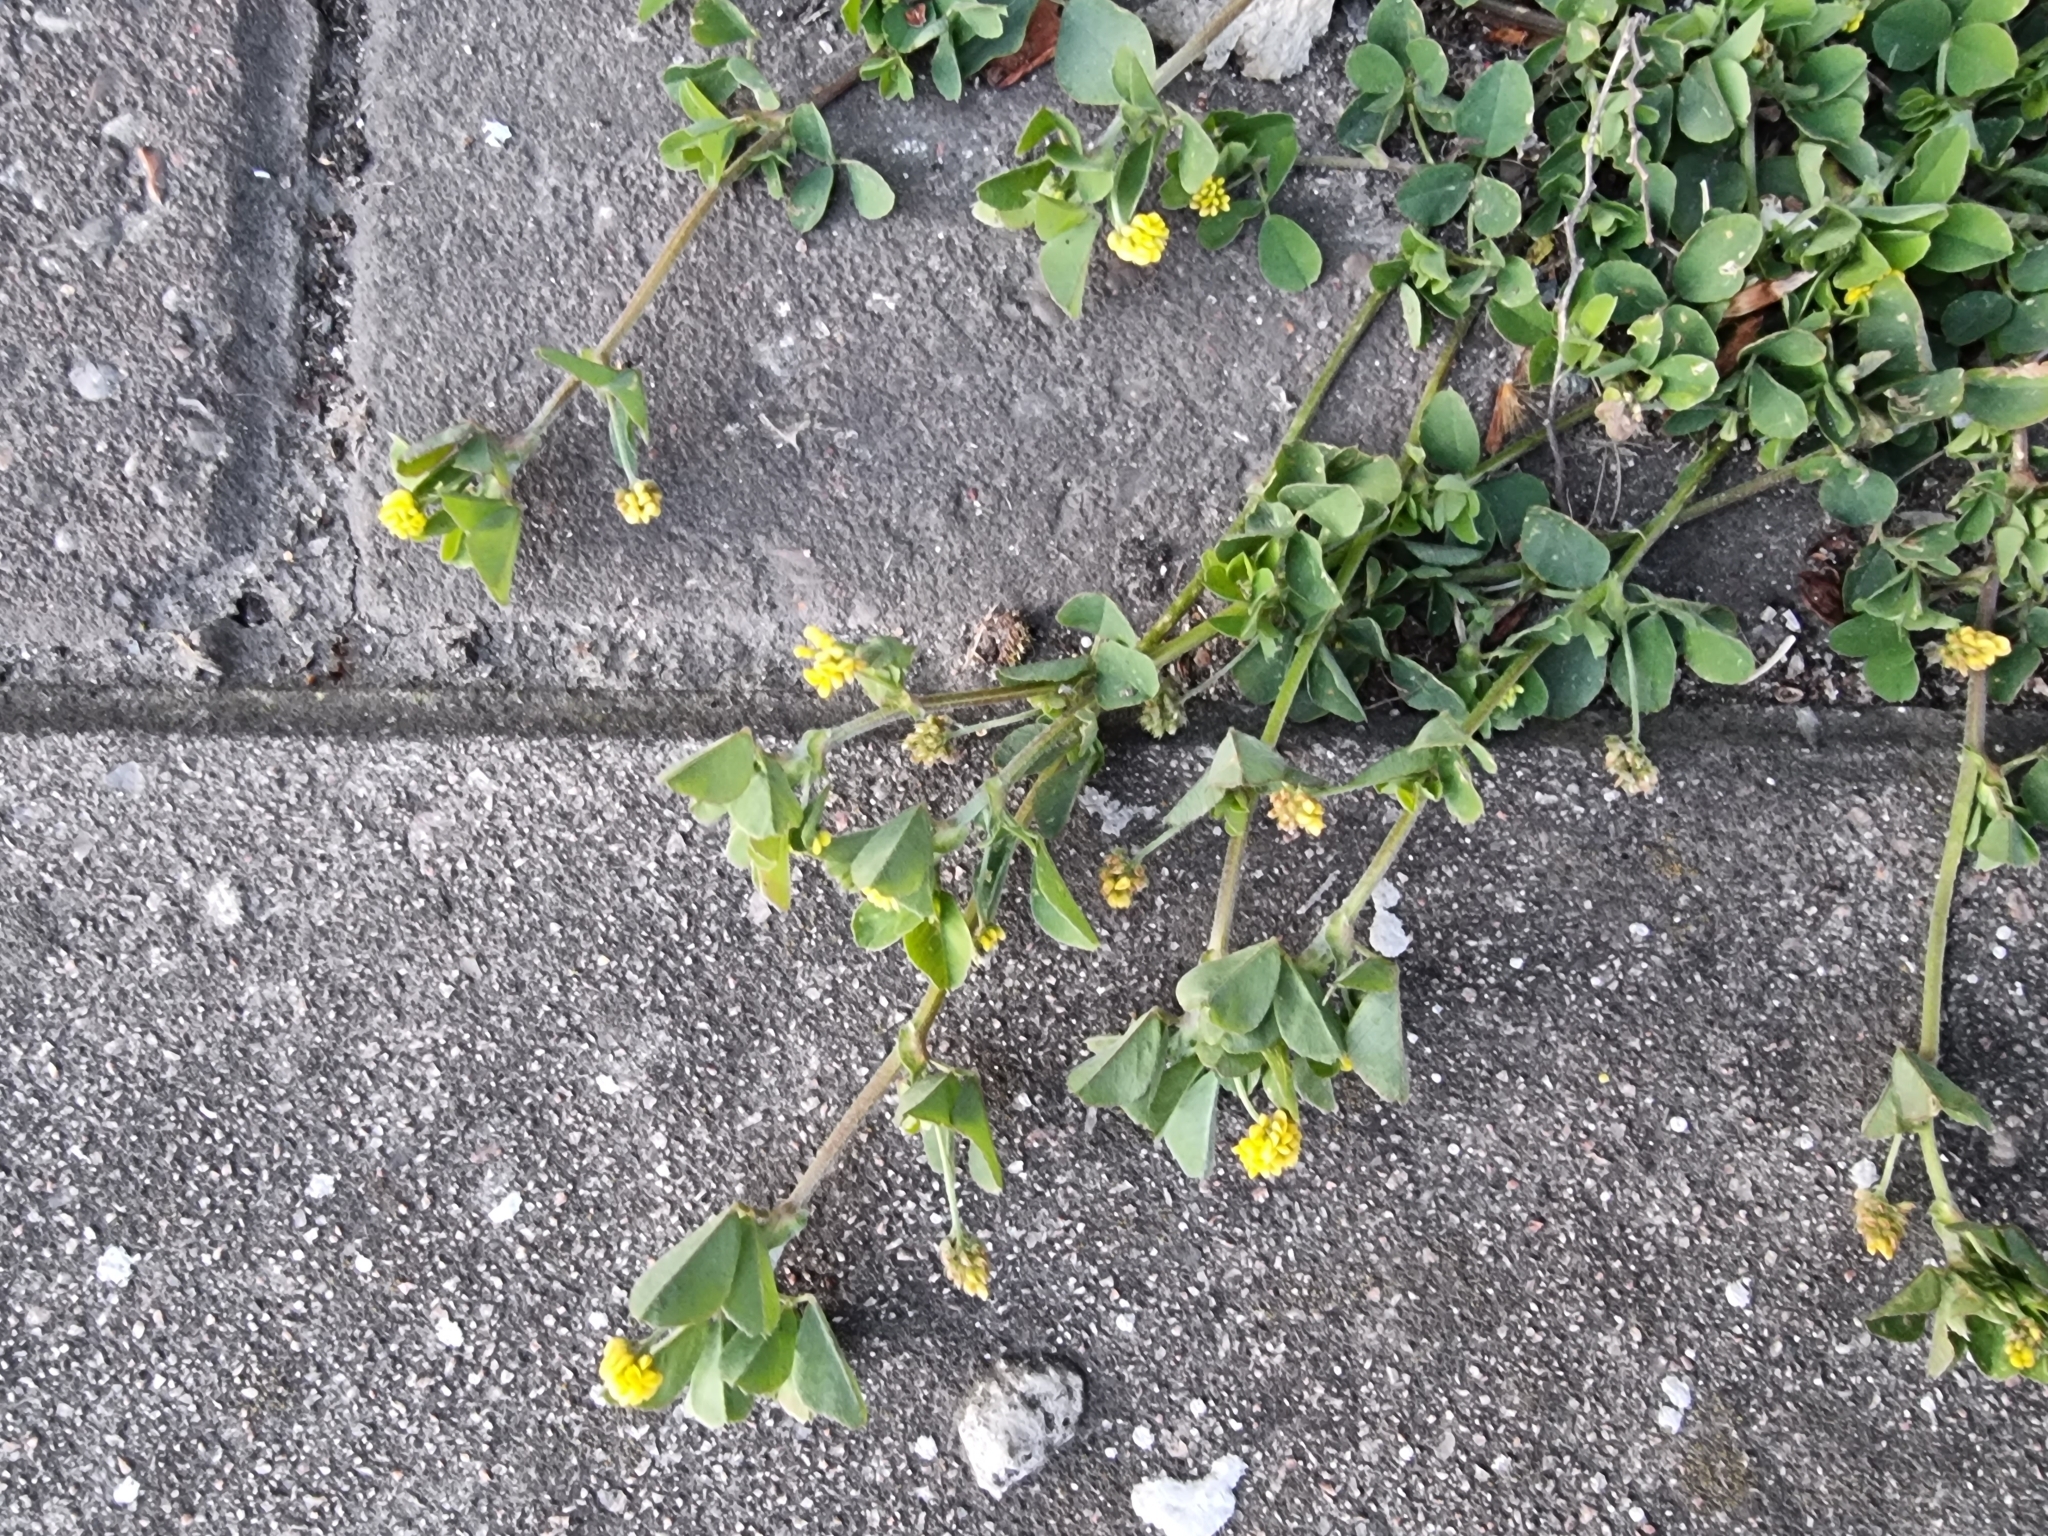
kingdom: Plantae
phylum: Tracheophyta
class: Magnoliopsida
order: Fabales
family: Fabaceae
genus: Medicago
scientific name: Medicago lupulina
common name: Black medick
